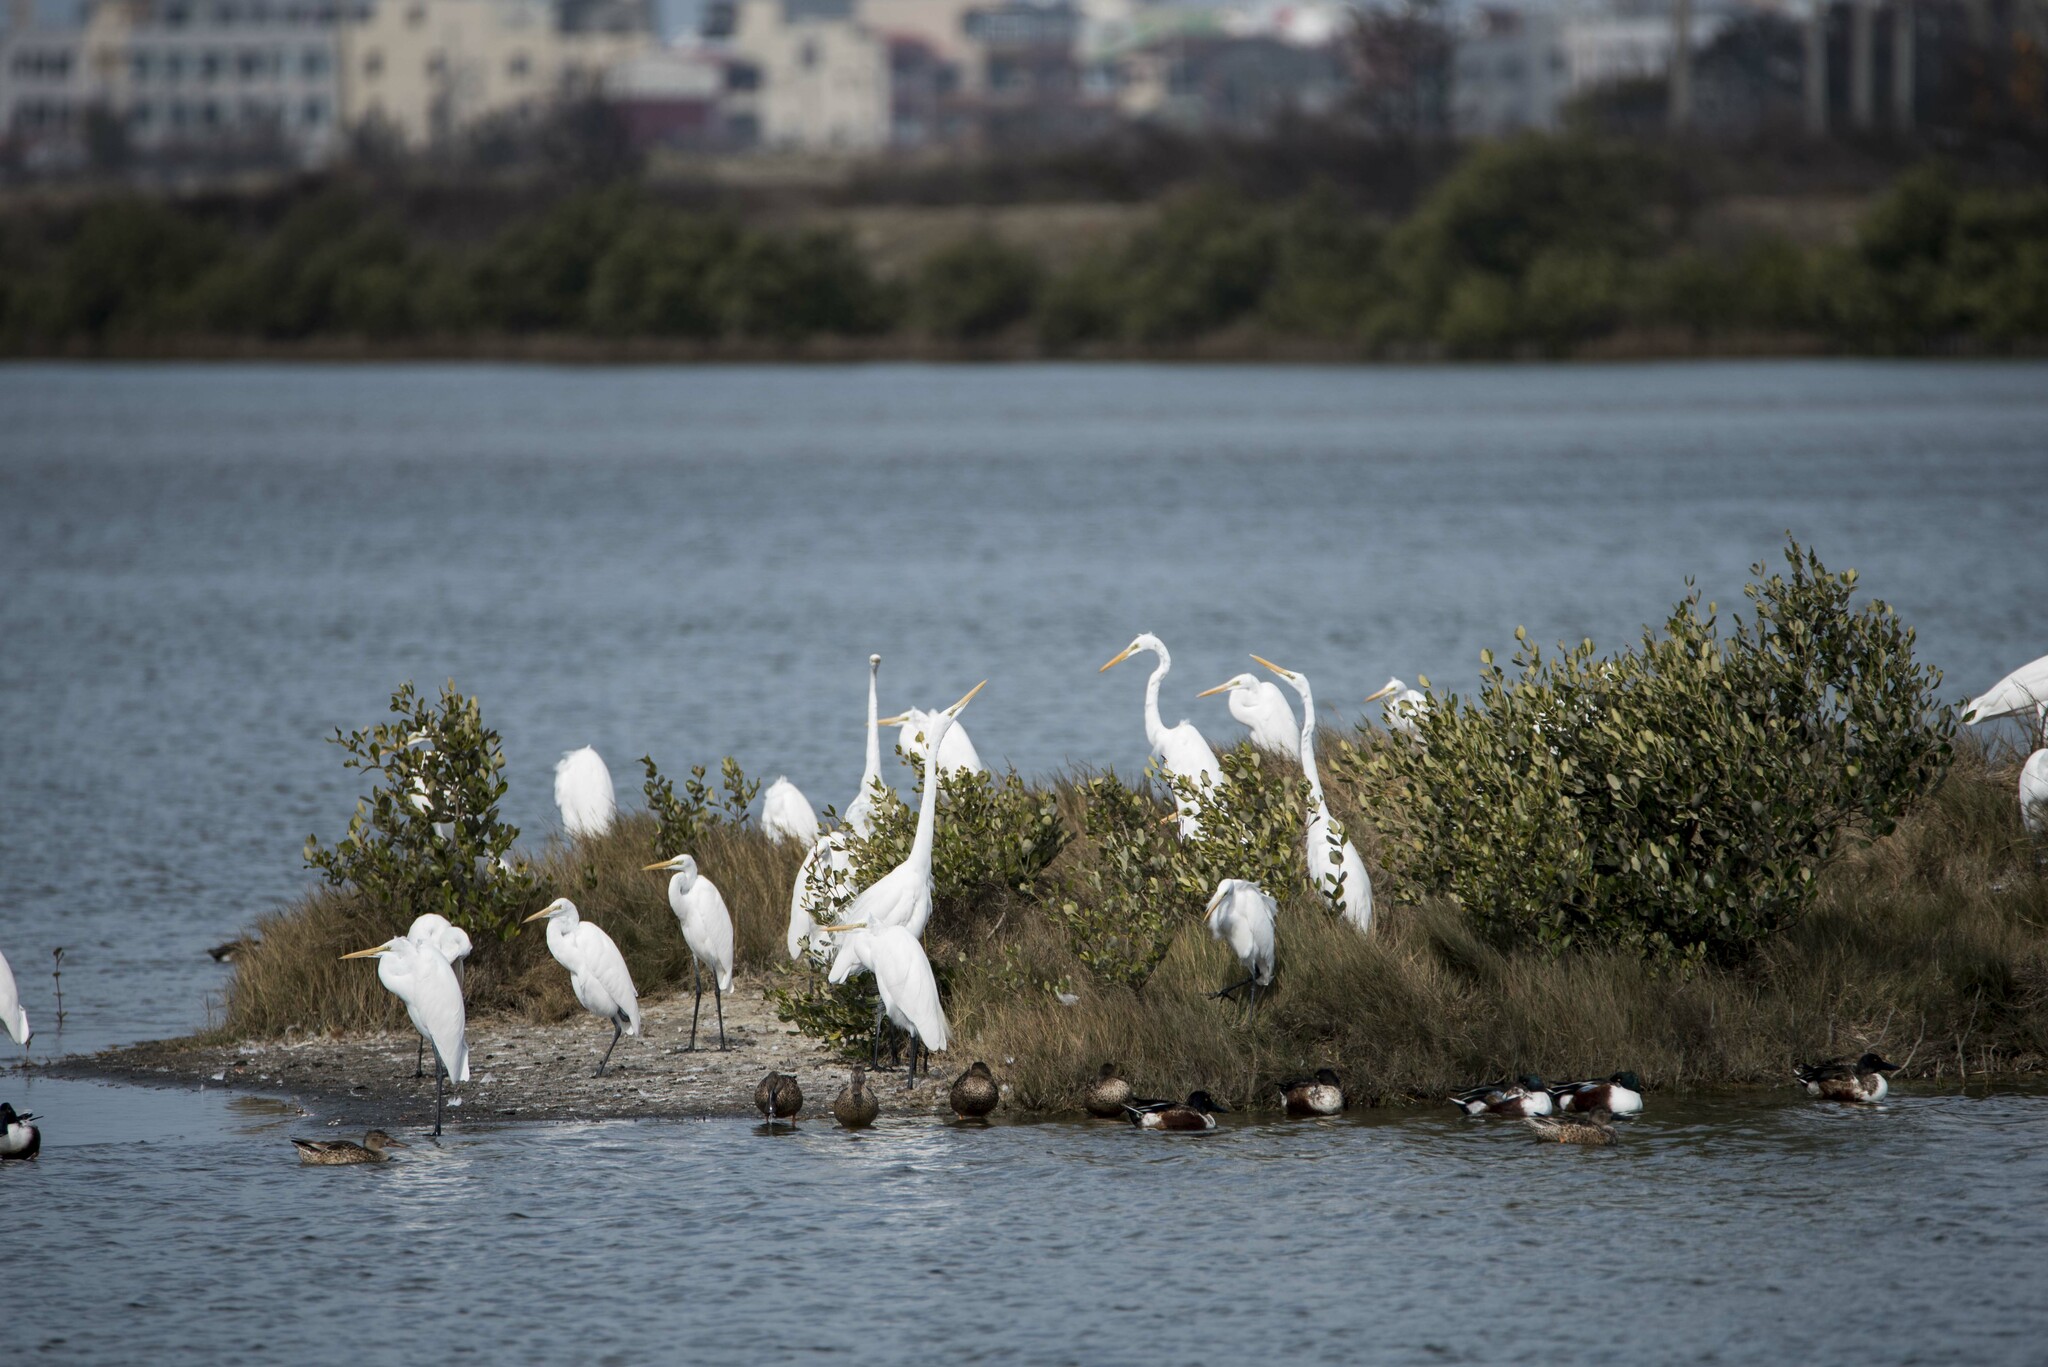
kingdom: Animalia
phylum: Chordata
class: Aves
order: Pelecaniformes
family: Ardeidae
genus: Ardea
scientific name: Ardea modesta
